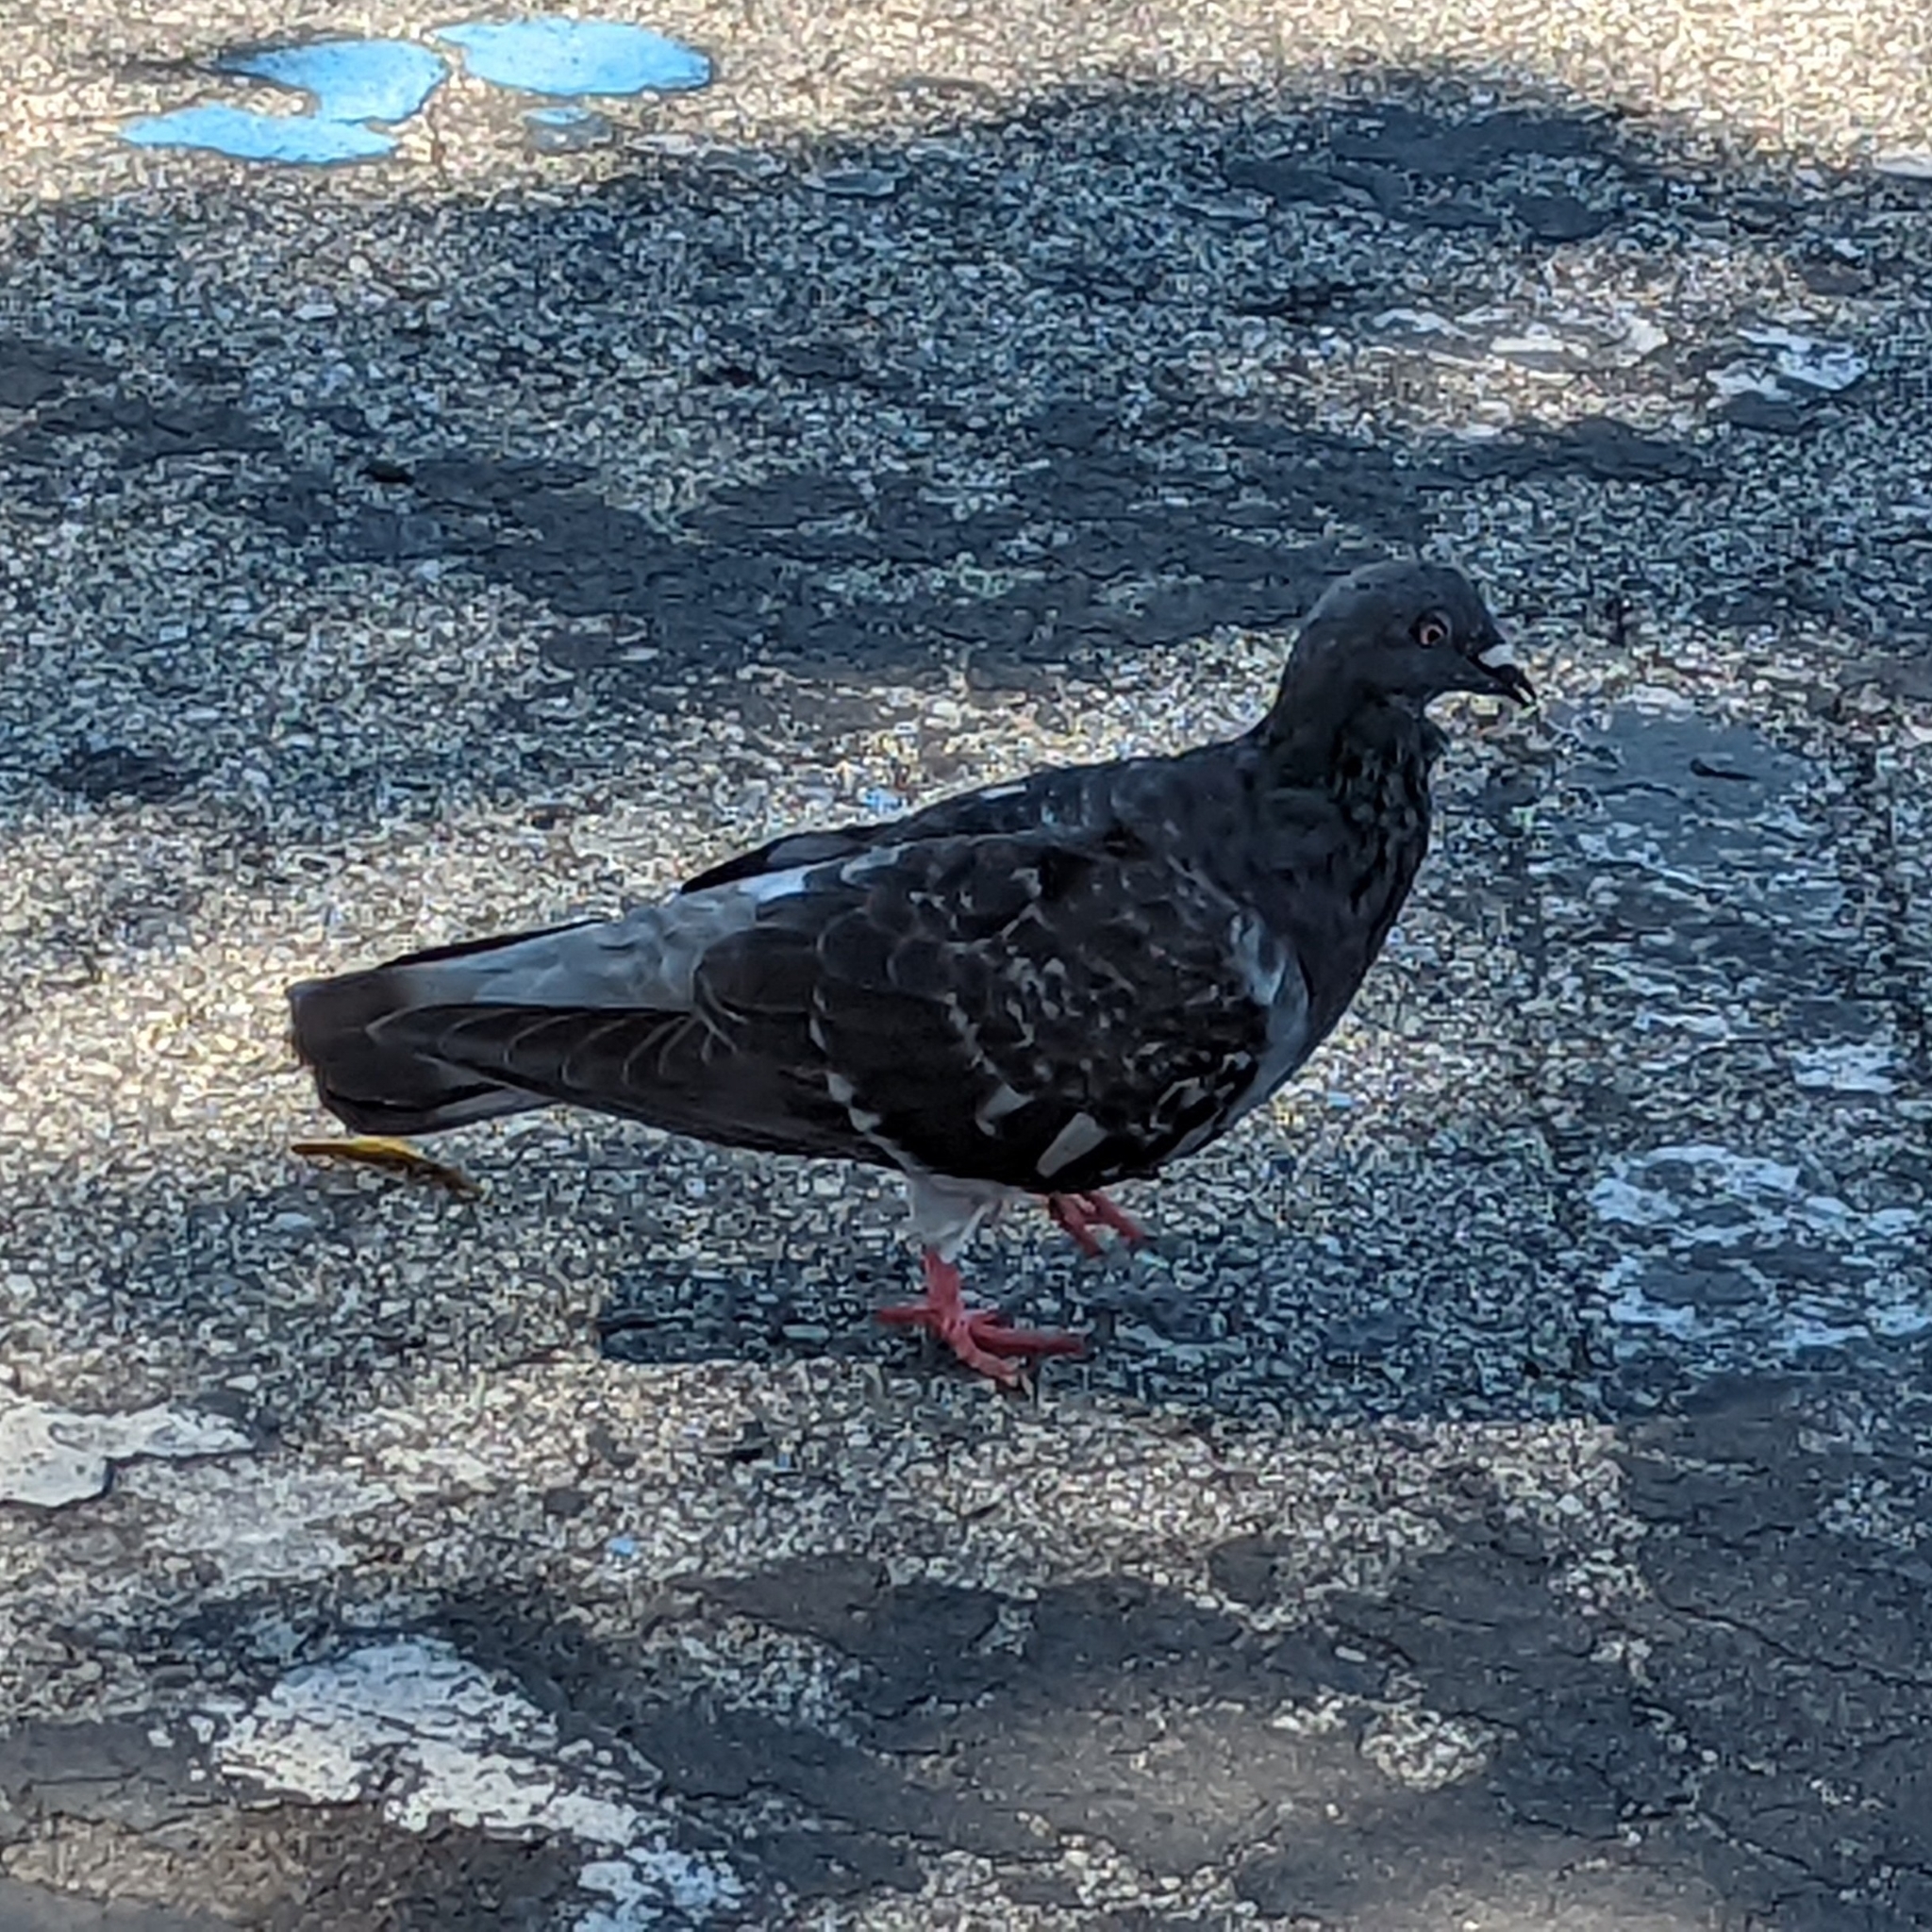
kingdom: Animalia
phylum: Chordata
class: Aves
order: Columbiformes
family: Columbidae
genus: Columba
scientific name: Columba livia
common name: Rock pigeon
